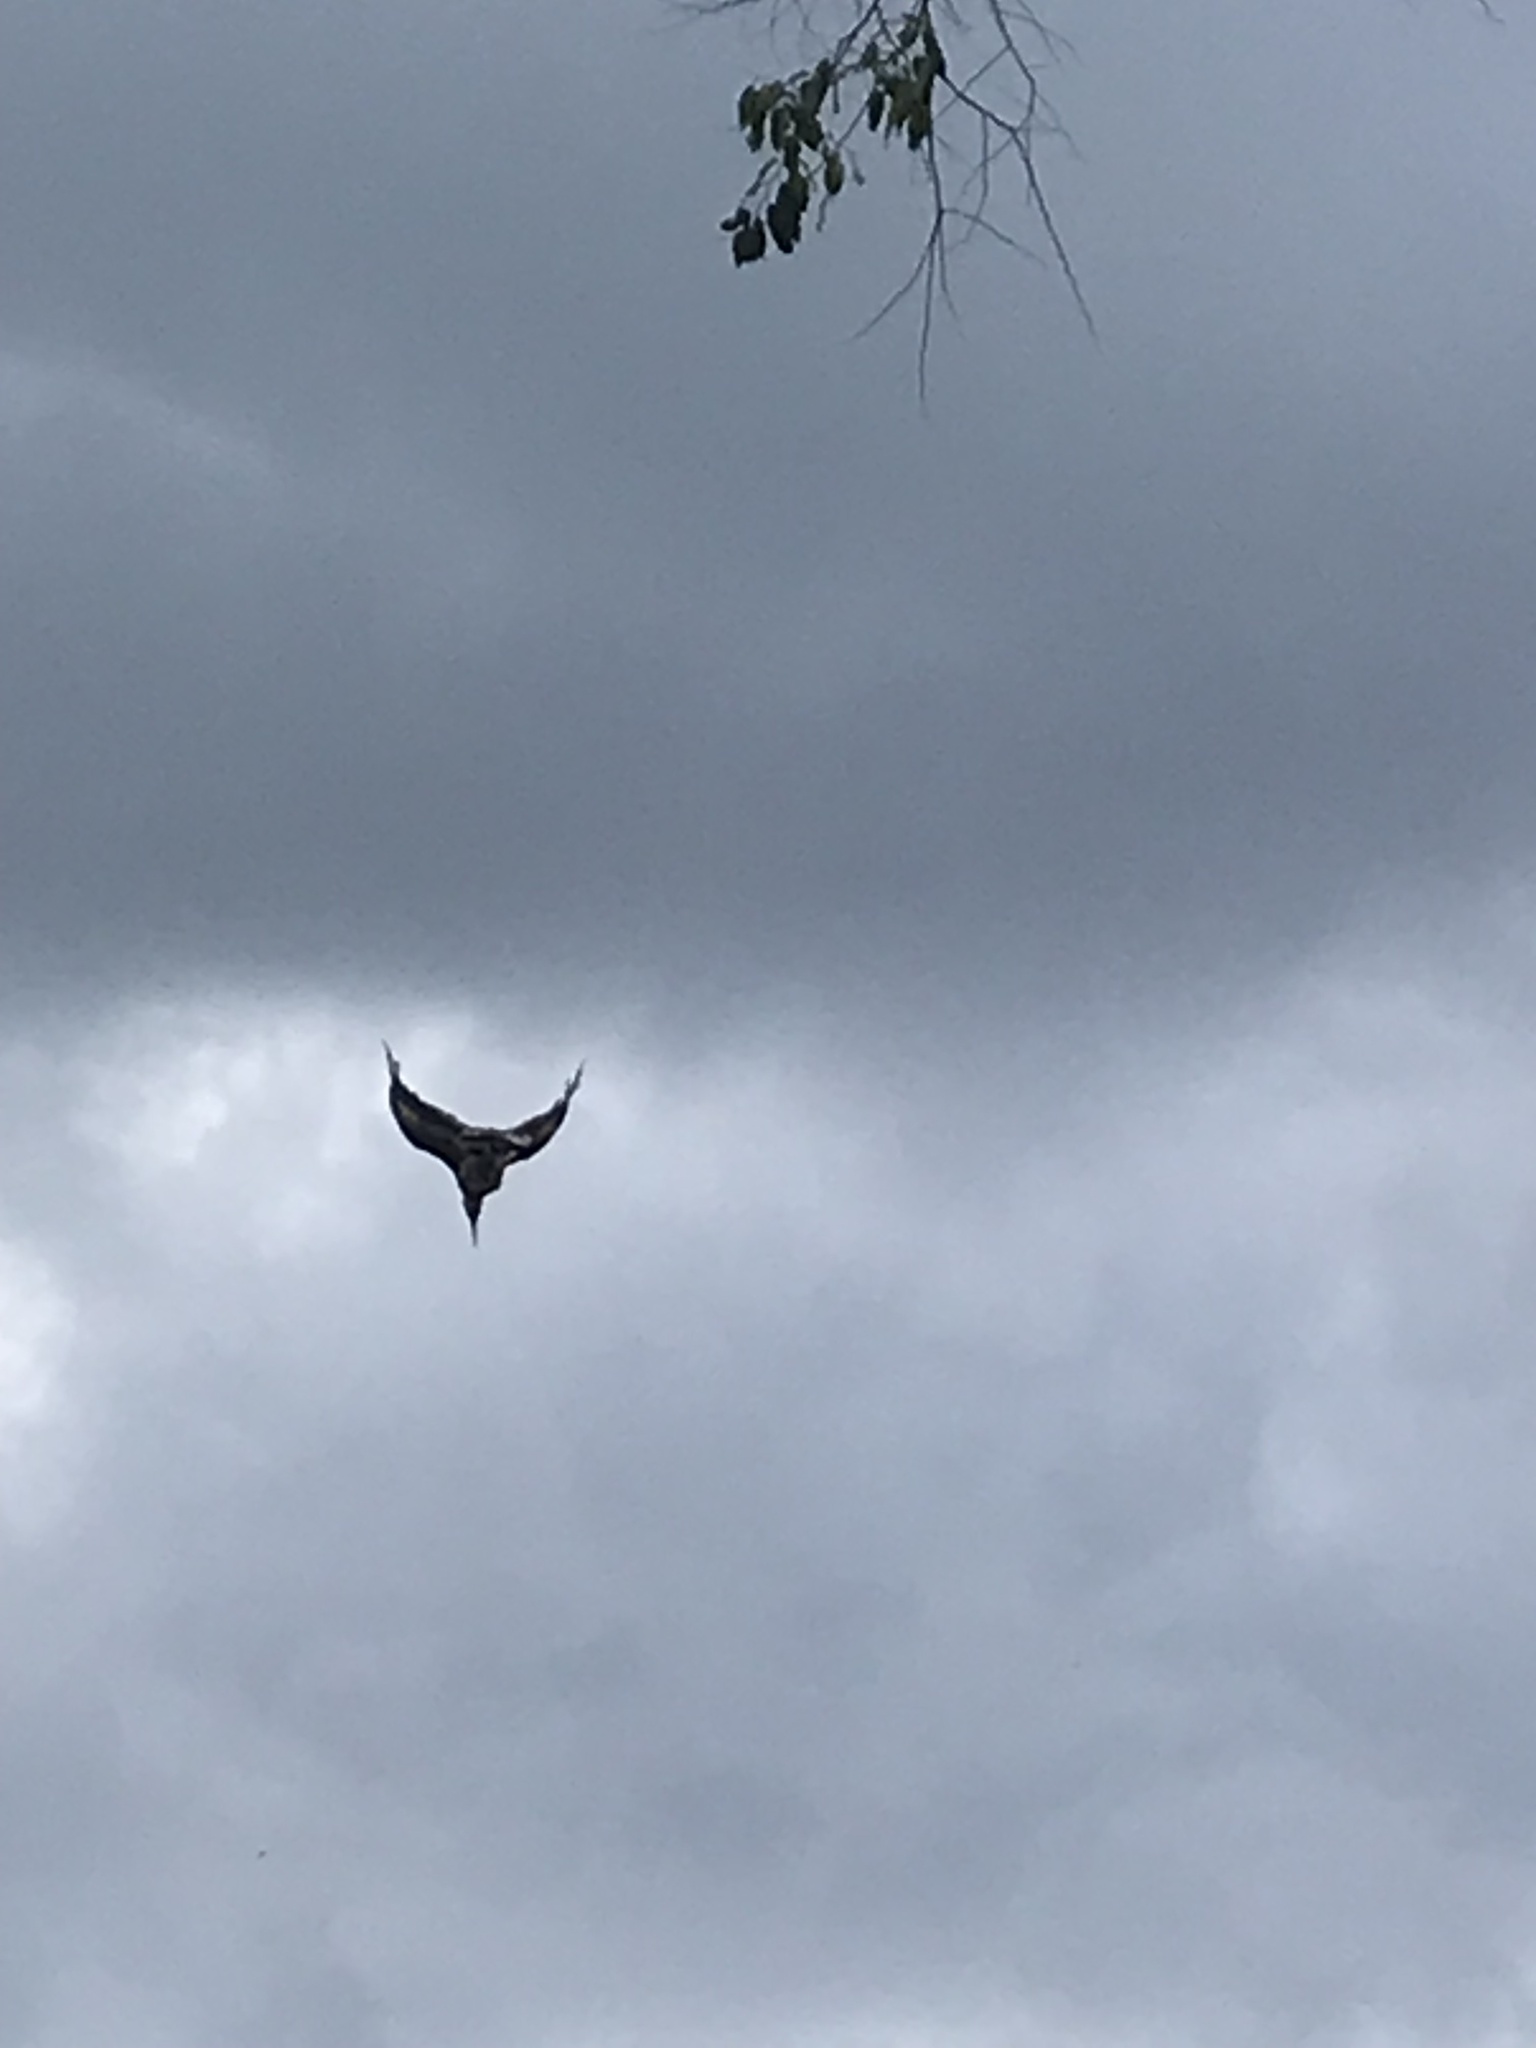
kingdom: Animalia
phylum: Chordata
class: Aves
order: Bucerotiformes
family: Bucerotidae
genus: Buceros
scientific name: Buceros bicornis
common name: Great hornbill
